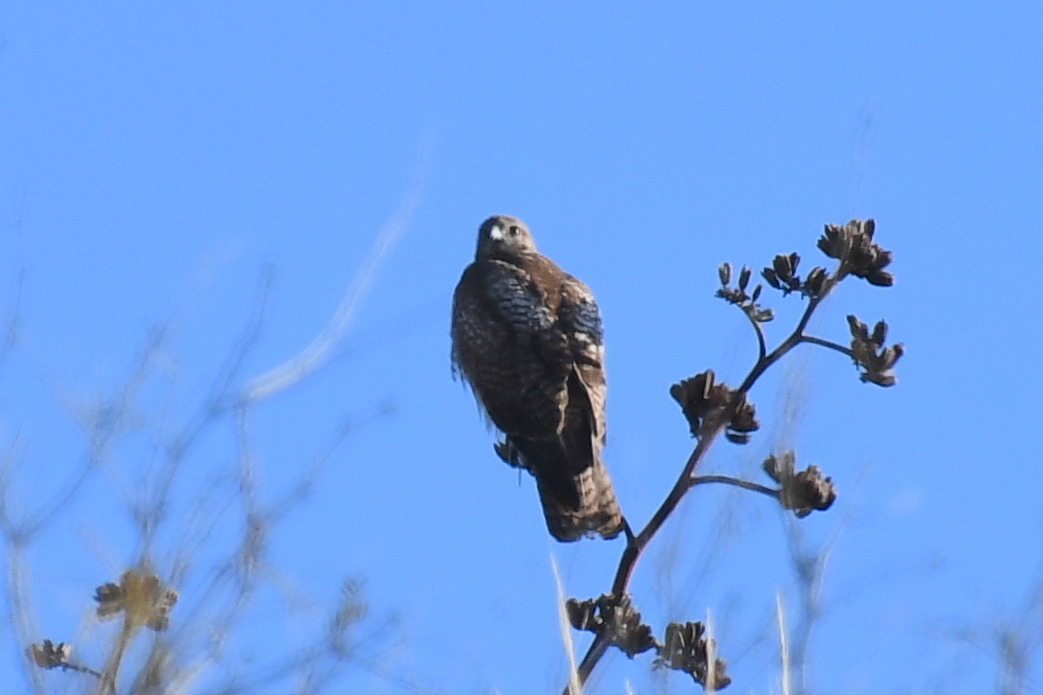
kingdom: Animalia
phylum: Chordata
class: Aves
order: Accipitriformes
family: Accipitridae
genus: Buteo
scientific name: Buteo jamaicensis
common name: Red-tailed hawk
